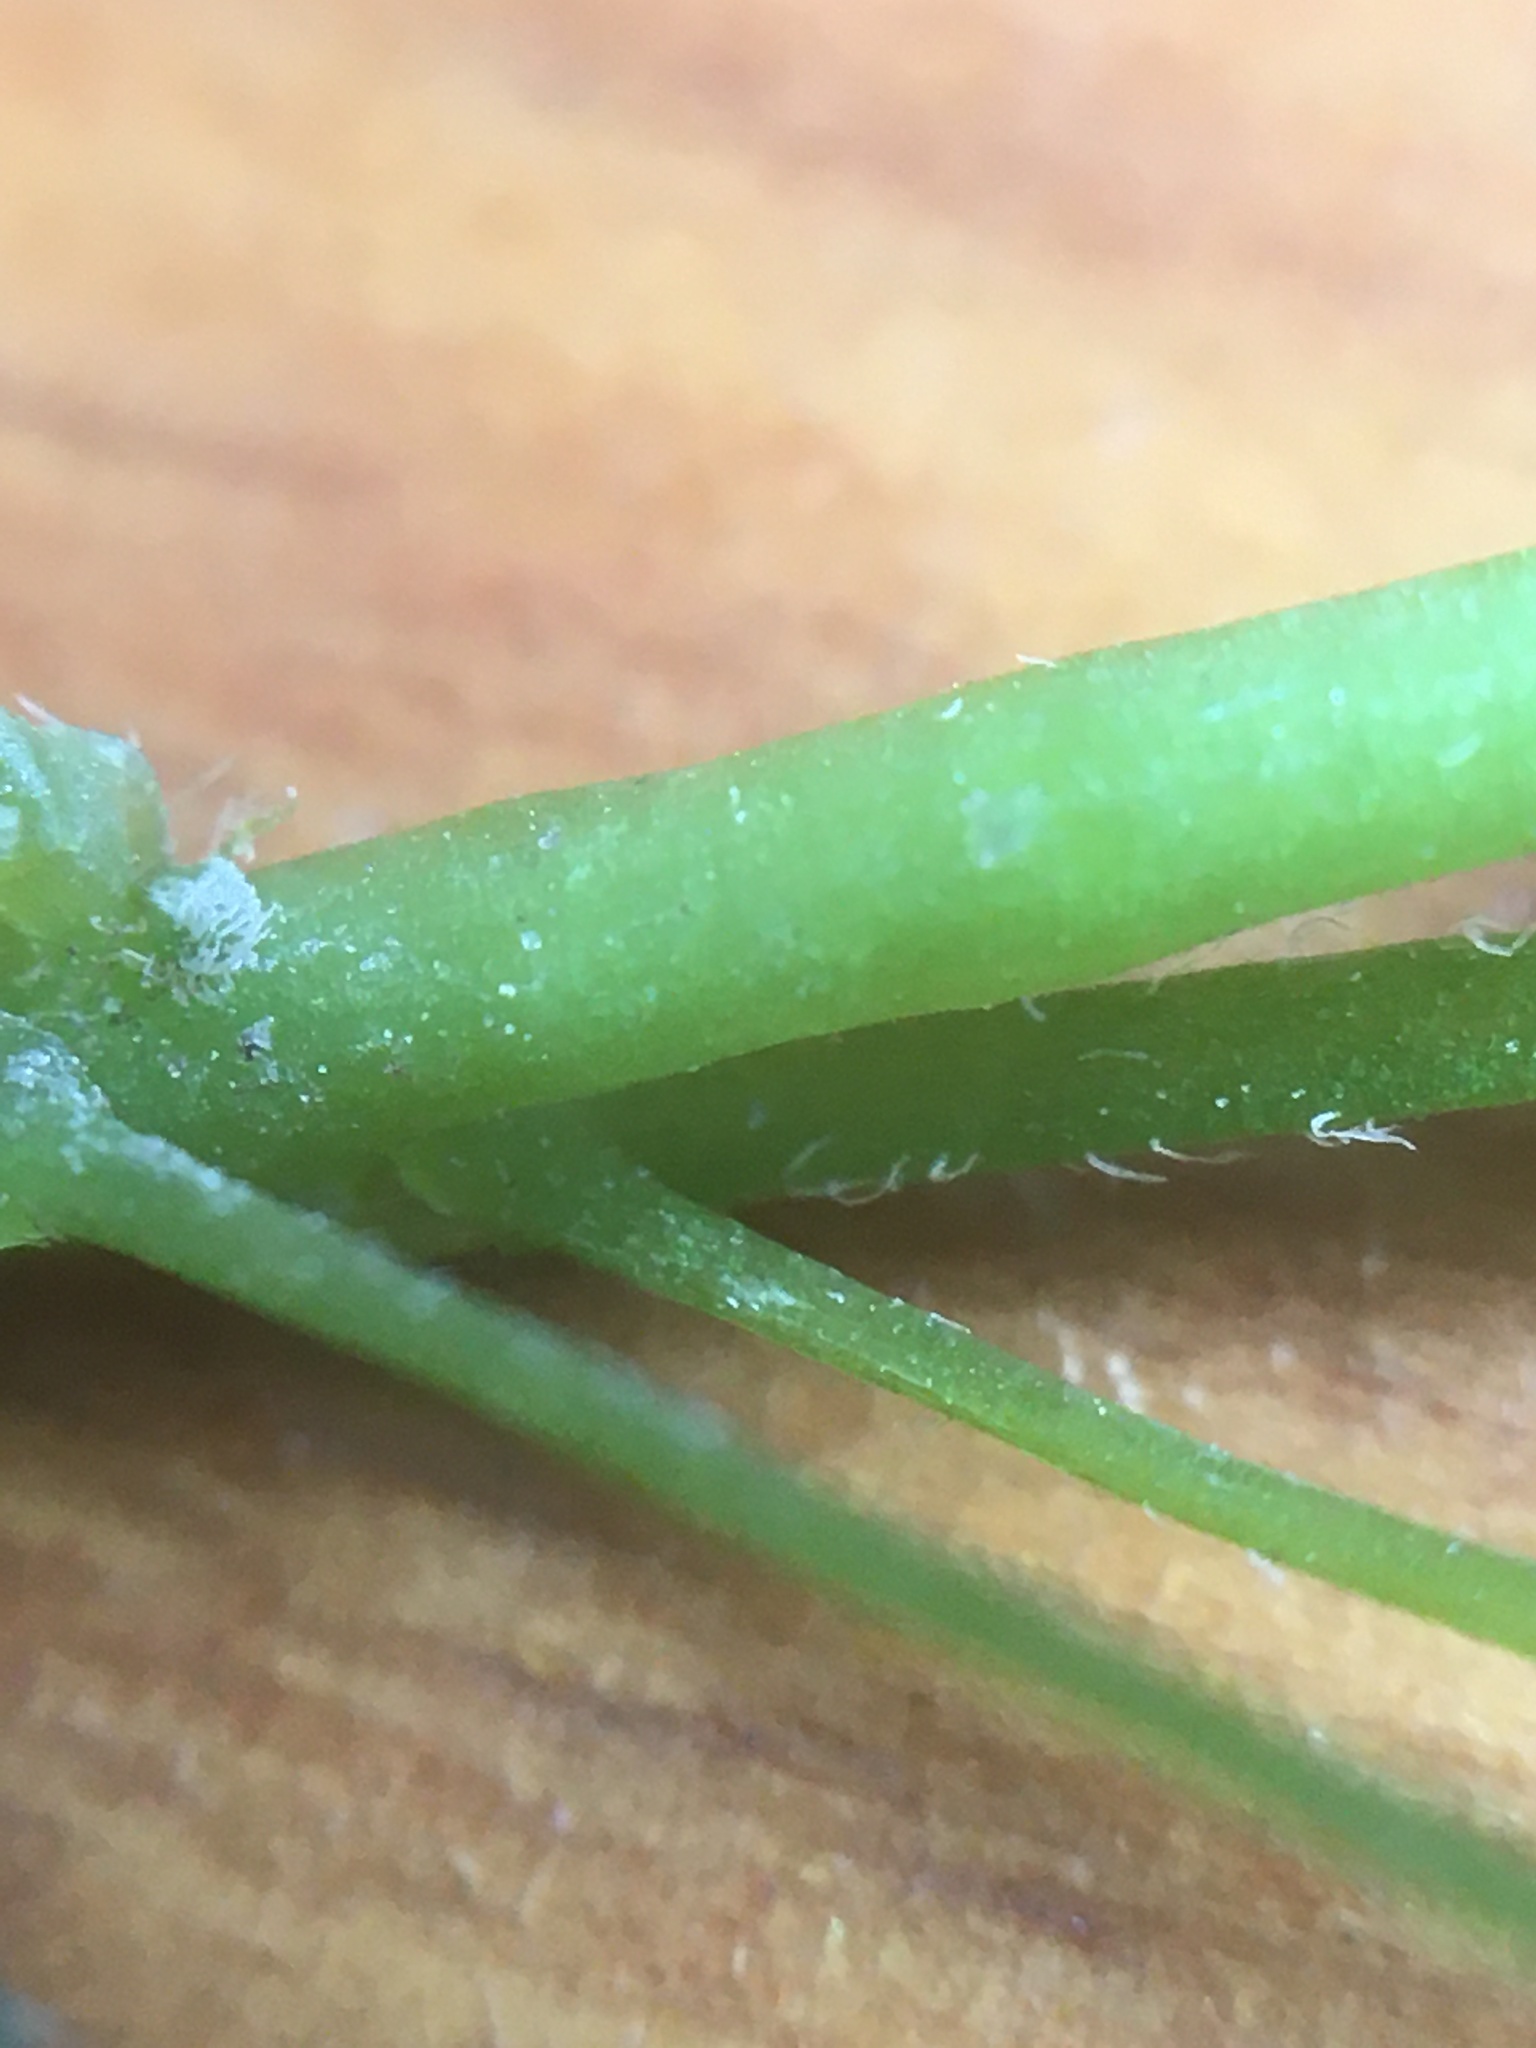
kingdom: Plantae
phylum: Tracheophyta
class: Magnoliopsida
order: Oxalidales
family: Oxalidaceae
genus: Oxalis
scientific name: Oxalis stricta
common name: Upright yellow-sorrel
